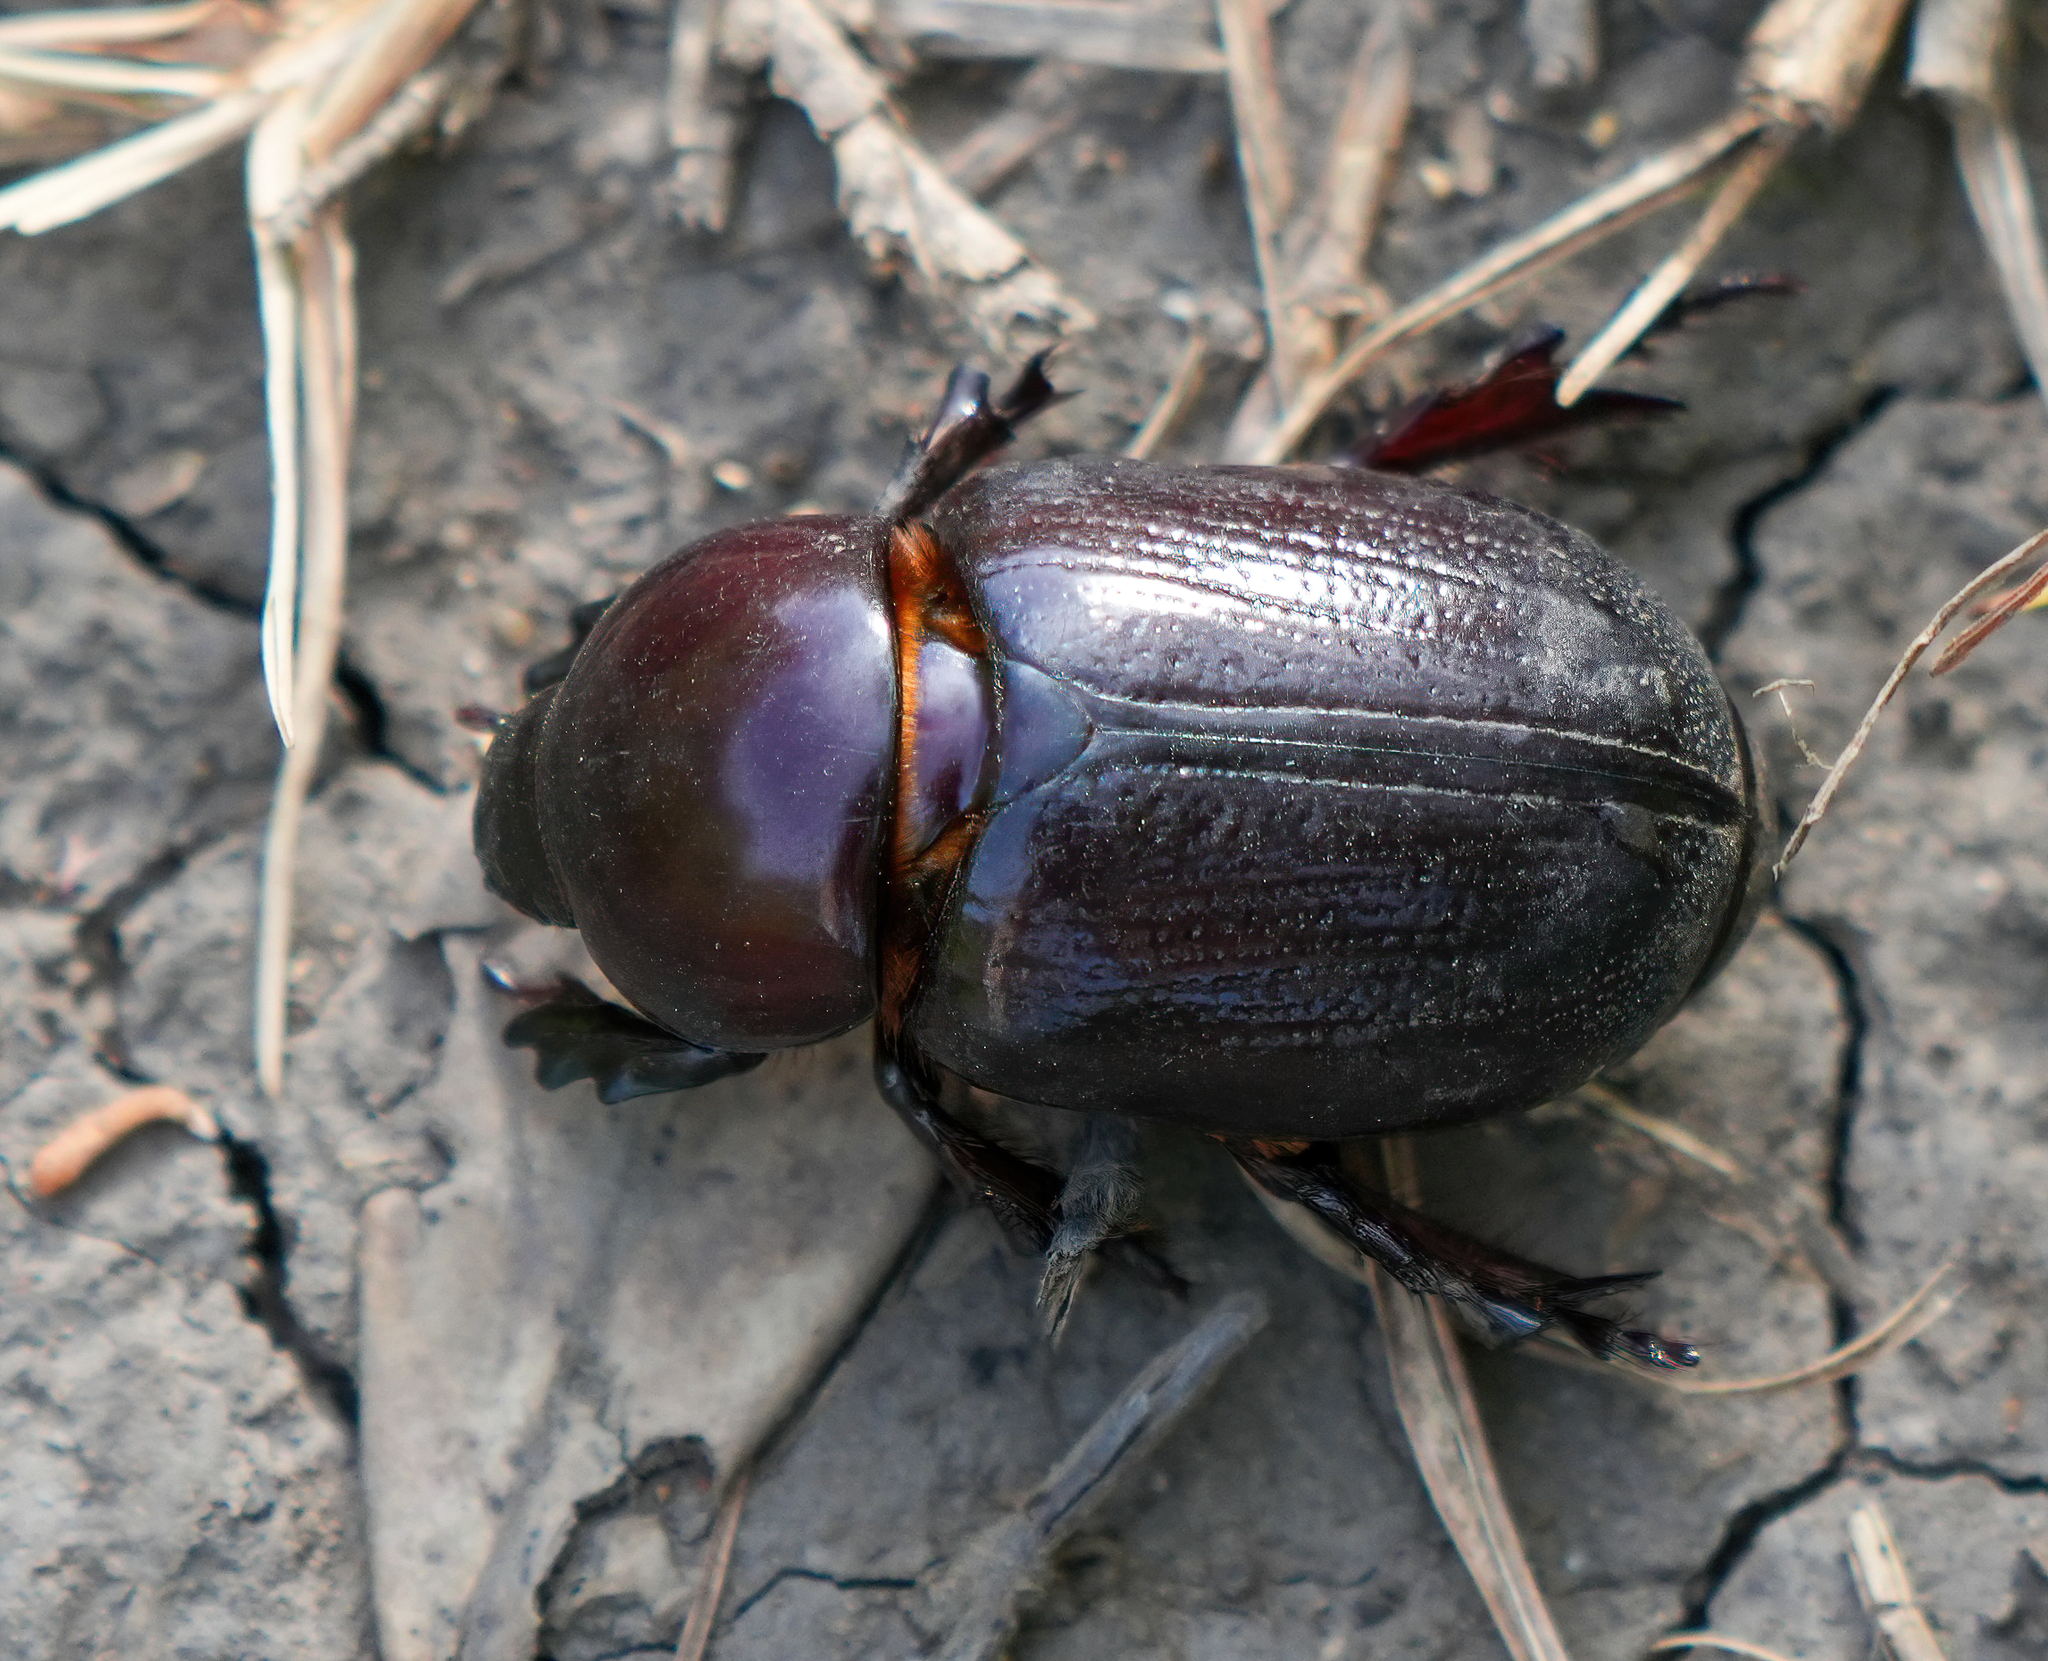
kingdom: Animalia
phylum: Arthropoda
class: Insecta
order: Coleoptera
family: Scarabaeidae
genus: Dasygnathus
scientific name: Dasygnathus trituberculatus
